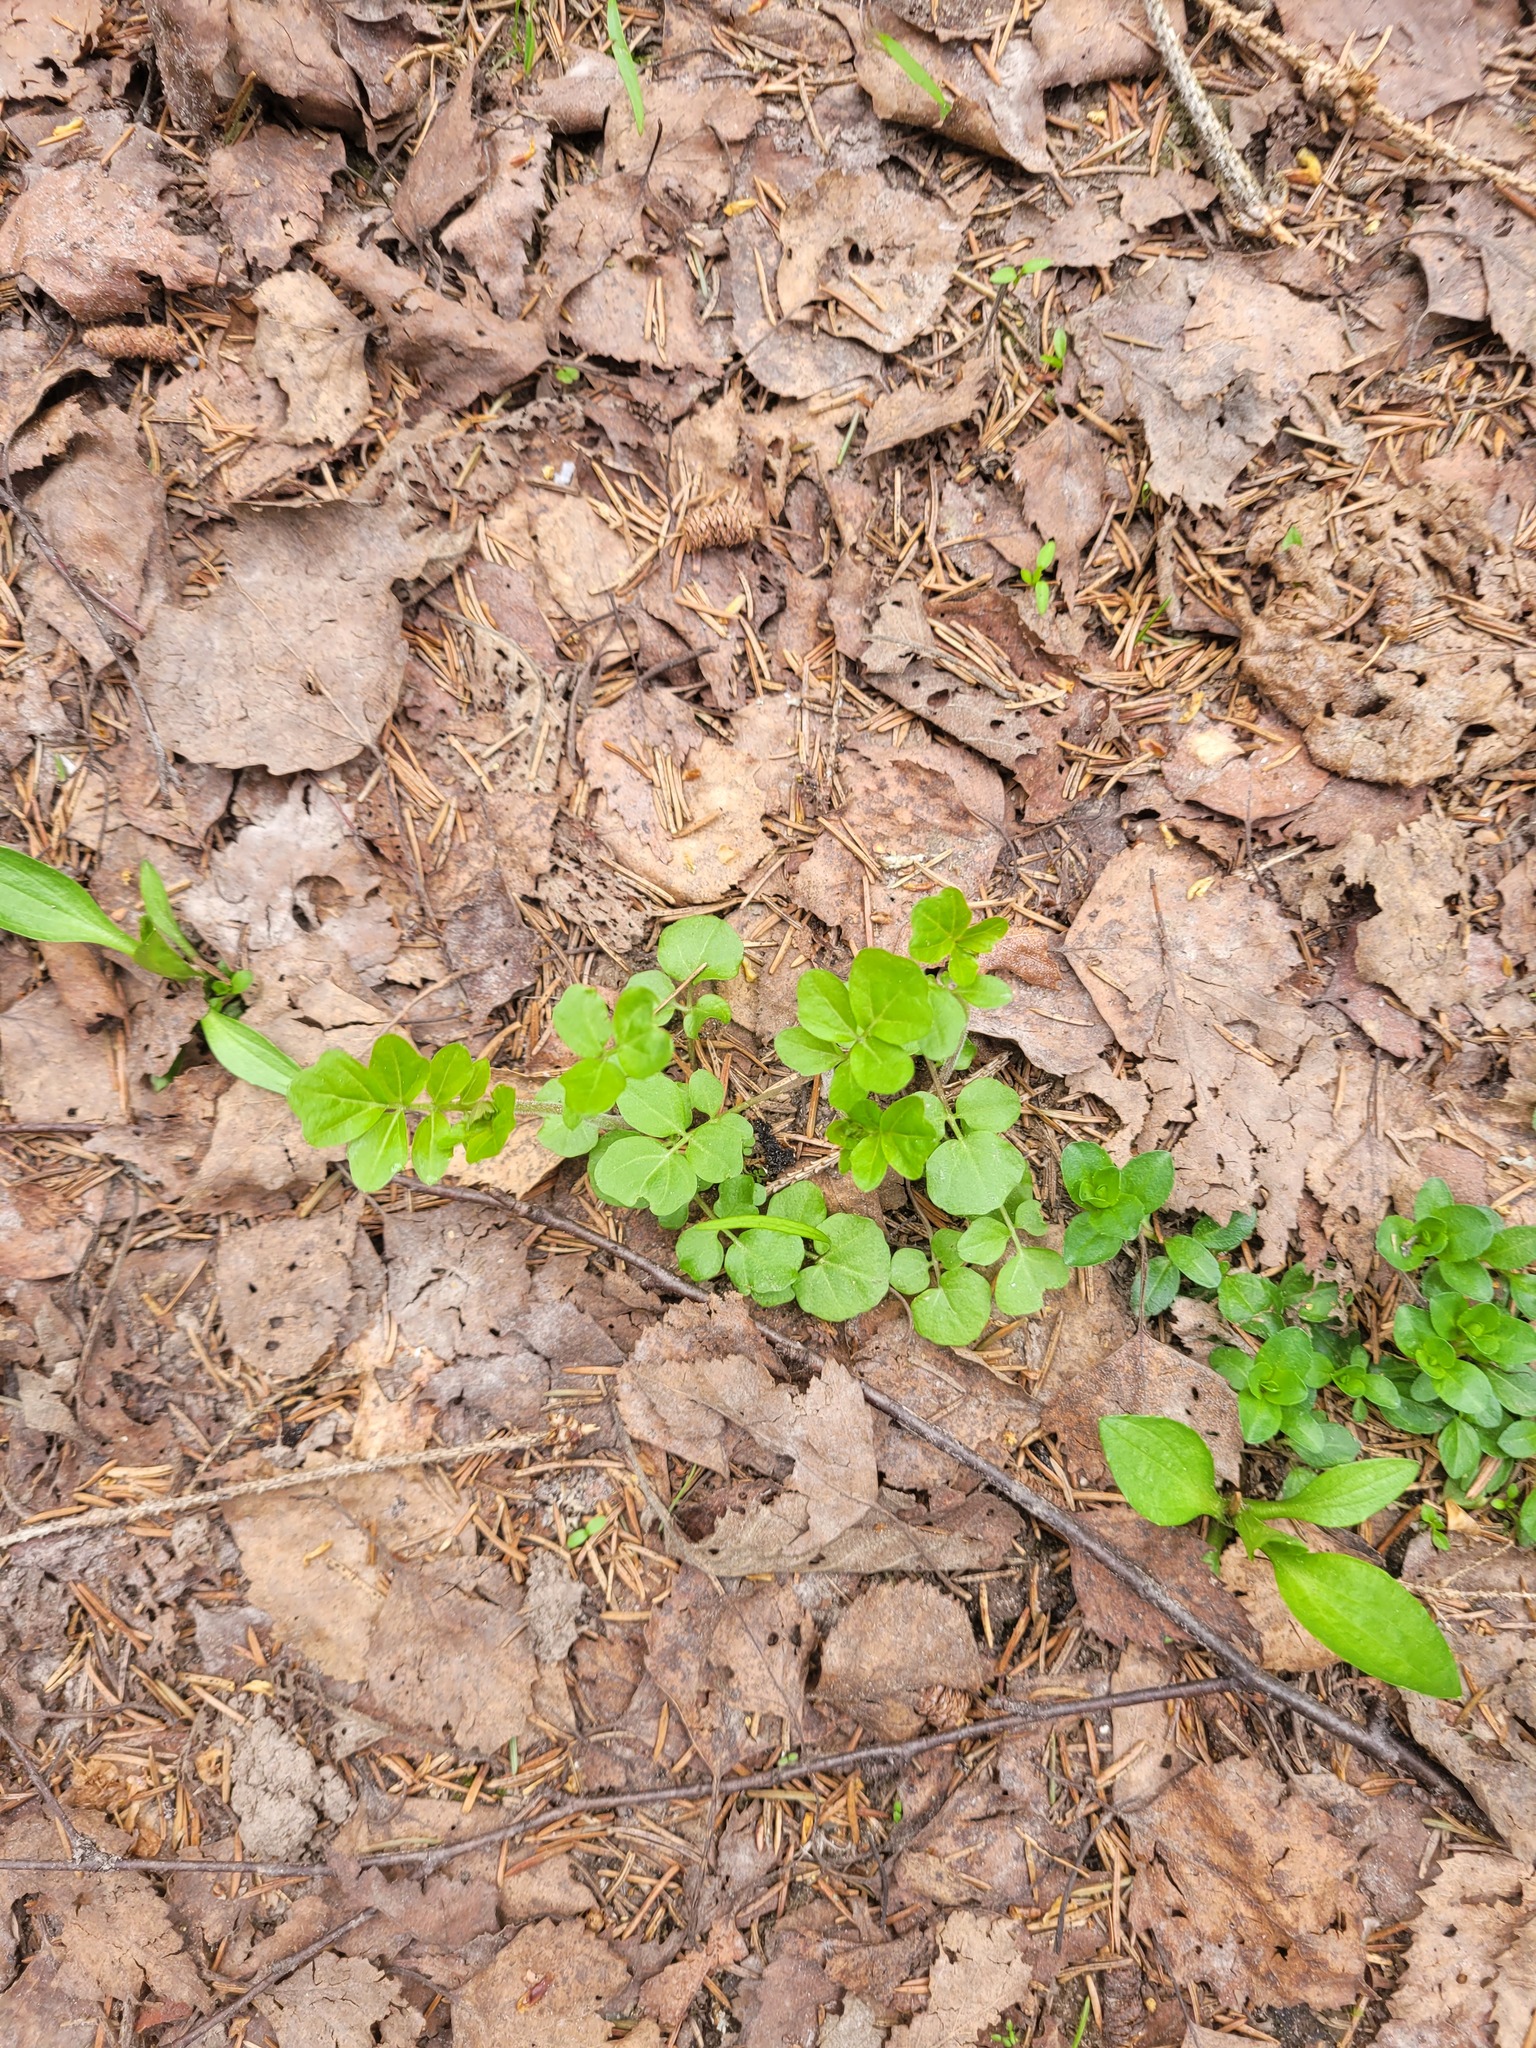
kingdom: Plantae
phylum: Tracheophyta
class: Magnoliopsida
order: Brassicales
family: Brassicaceae
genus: Cardamine
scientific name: Cardamine amara
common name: Large bitter-cress
